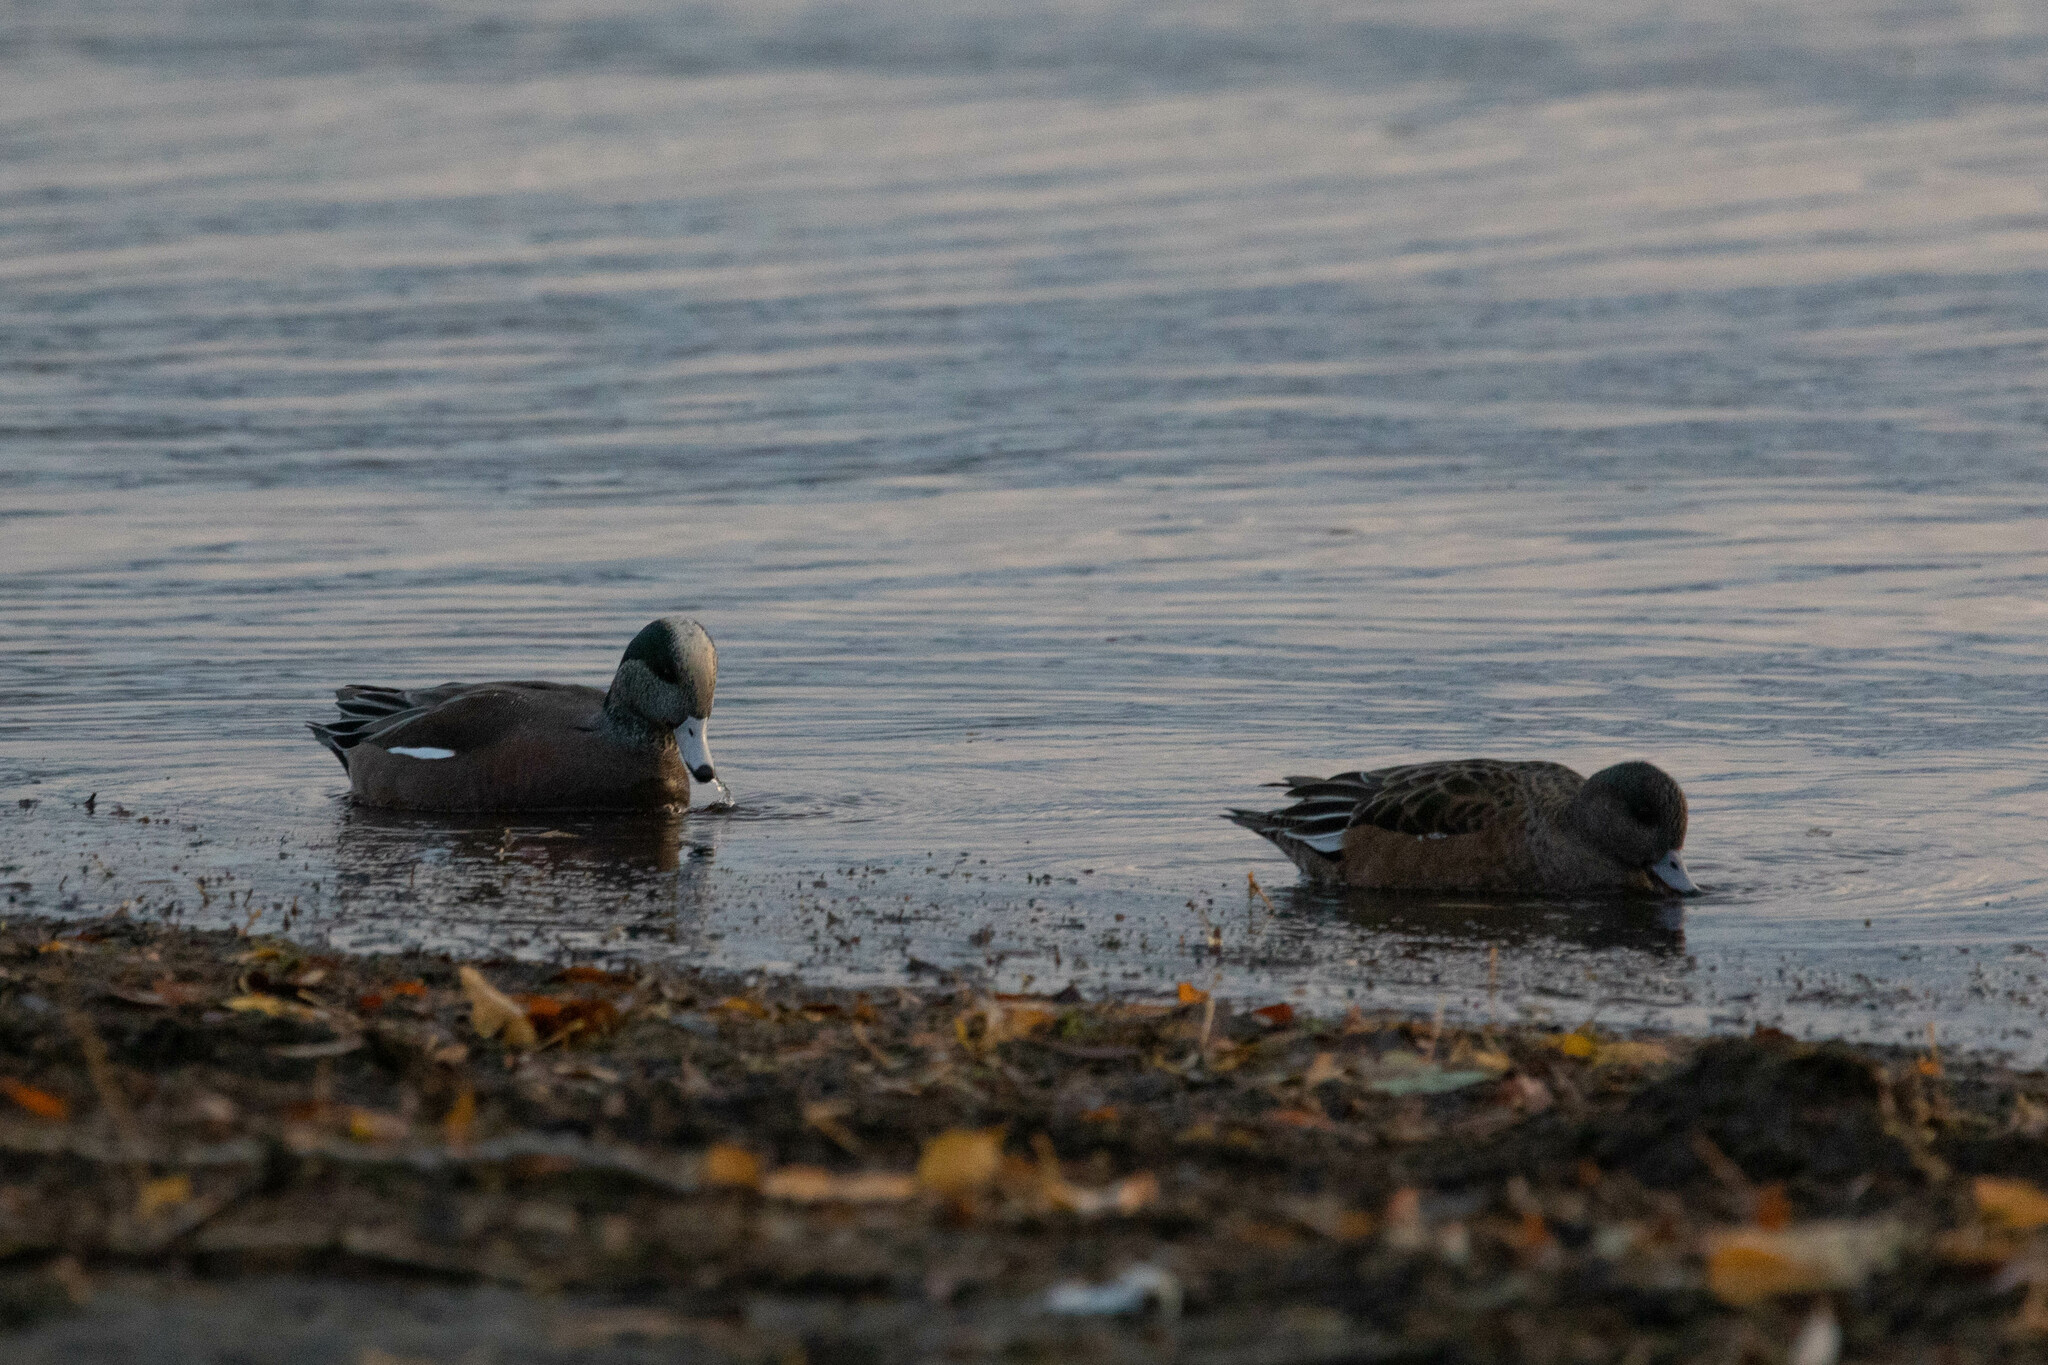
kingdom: Animalia
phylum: Chordata
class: Aves
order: Anseriformes
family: Anatidae
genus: Mareca
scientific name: Mareca americana
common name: American wigeon
